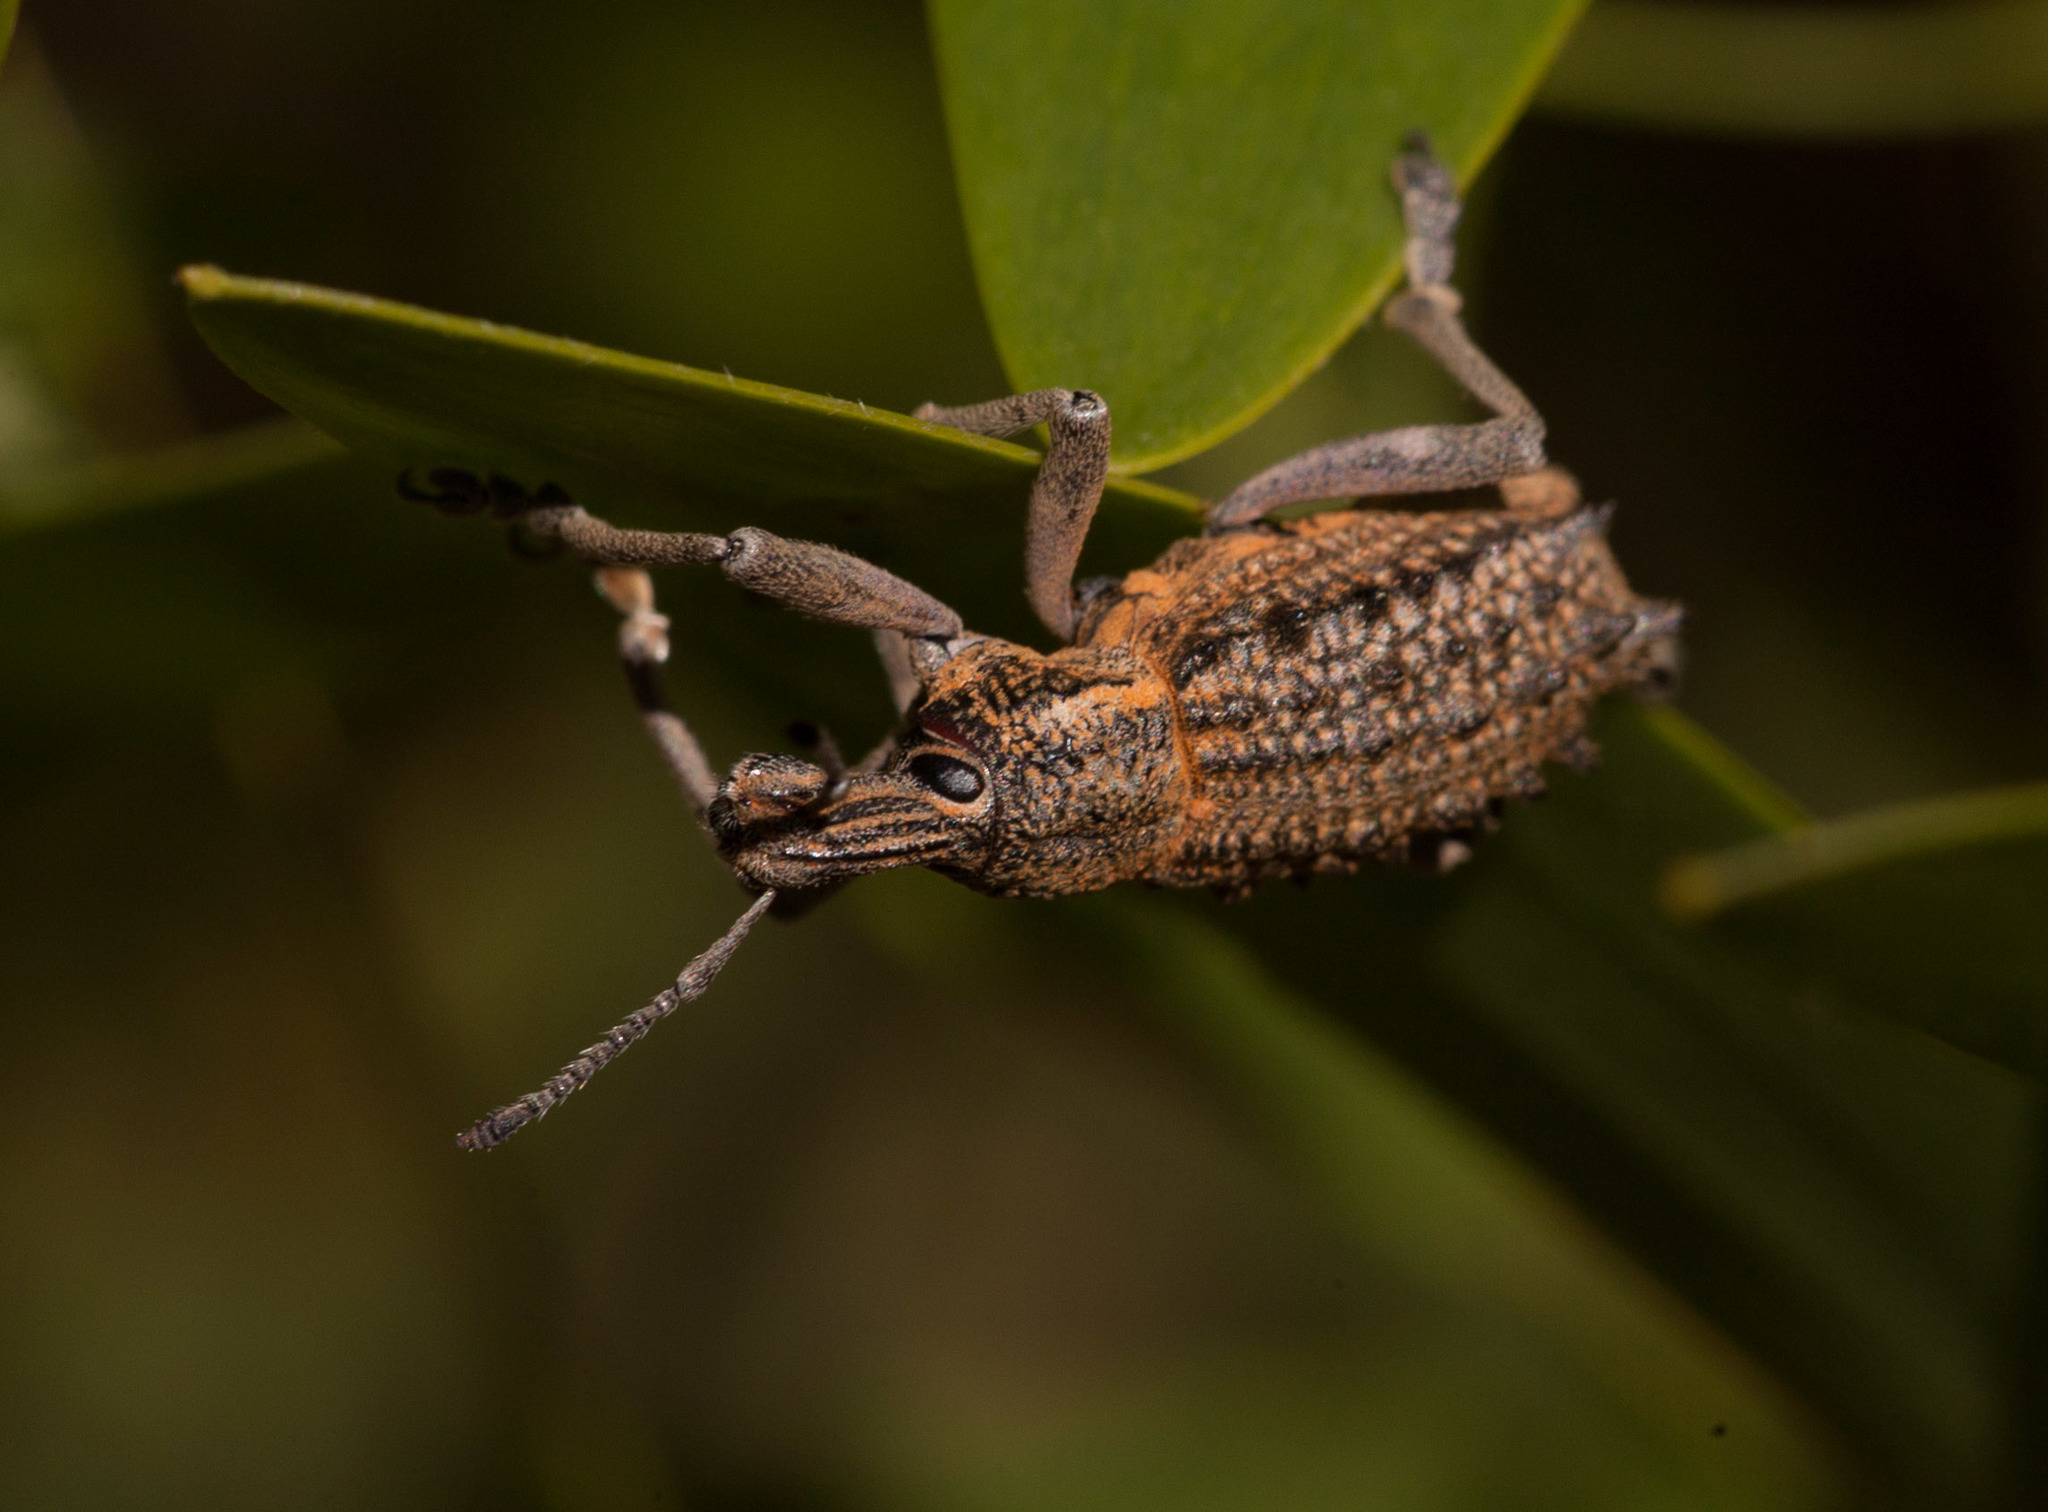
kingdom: Animalia
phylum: Arthropoda
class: Insecta
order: Coleoptera
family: Curculionidae
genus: Leptopius
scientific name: Leptopius duponti
